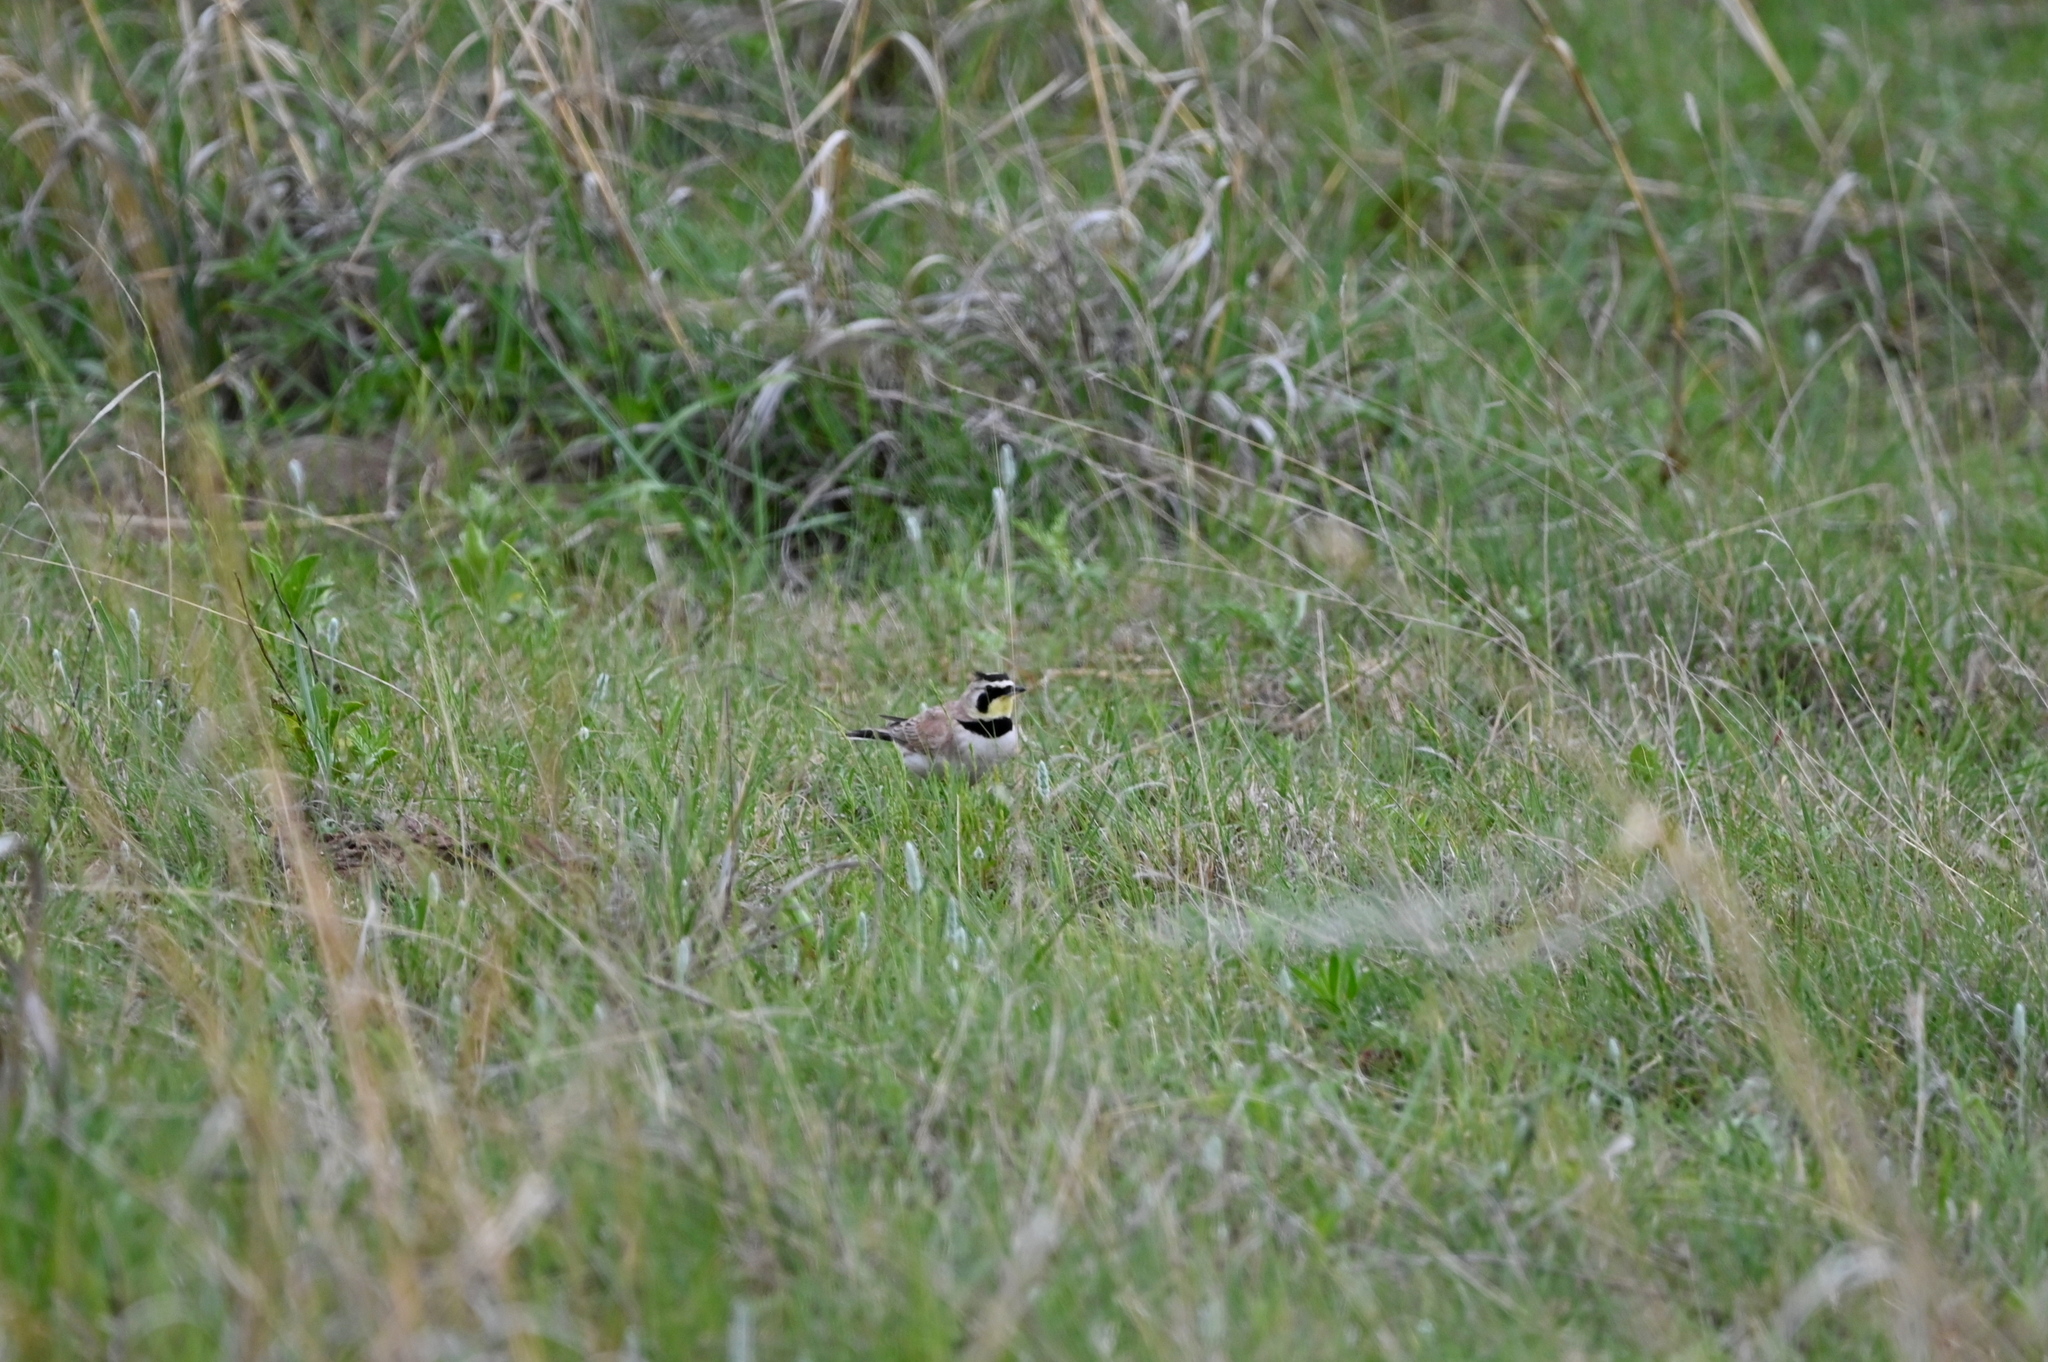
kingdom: Animalia
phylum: Chordata
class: Aves
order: Passeriformes
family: Alaudidae
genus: Eremophila
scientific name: Eremophila alpestris
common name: Horned lark
